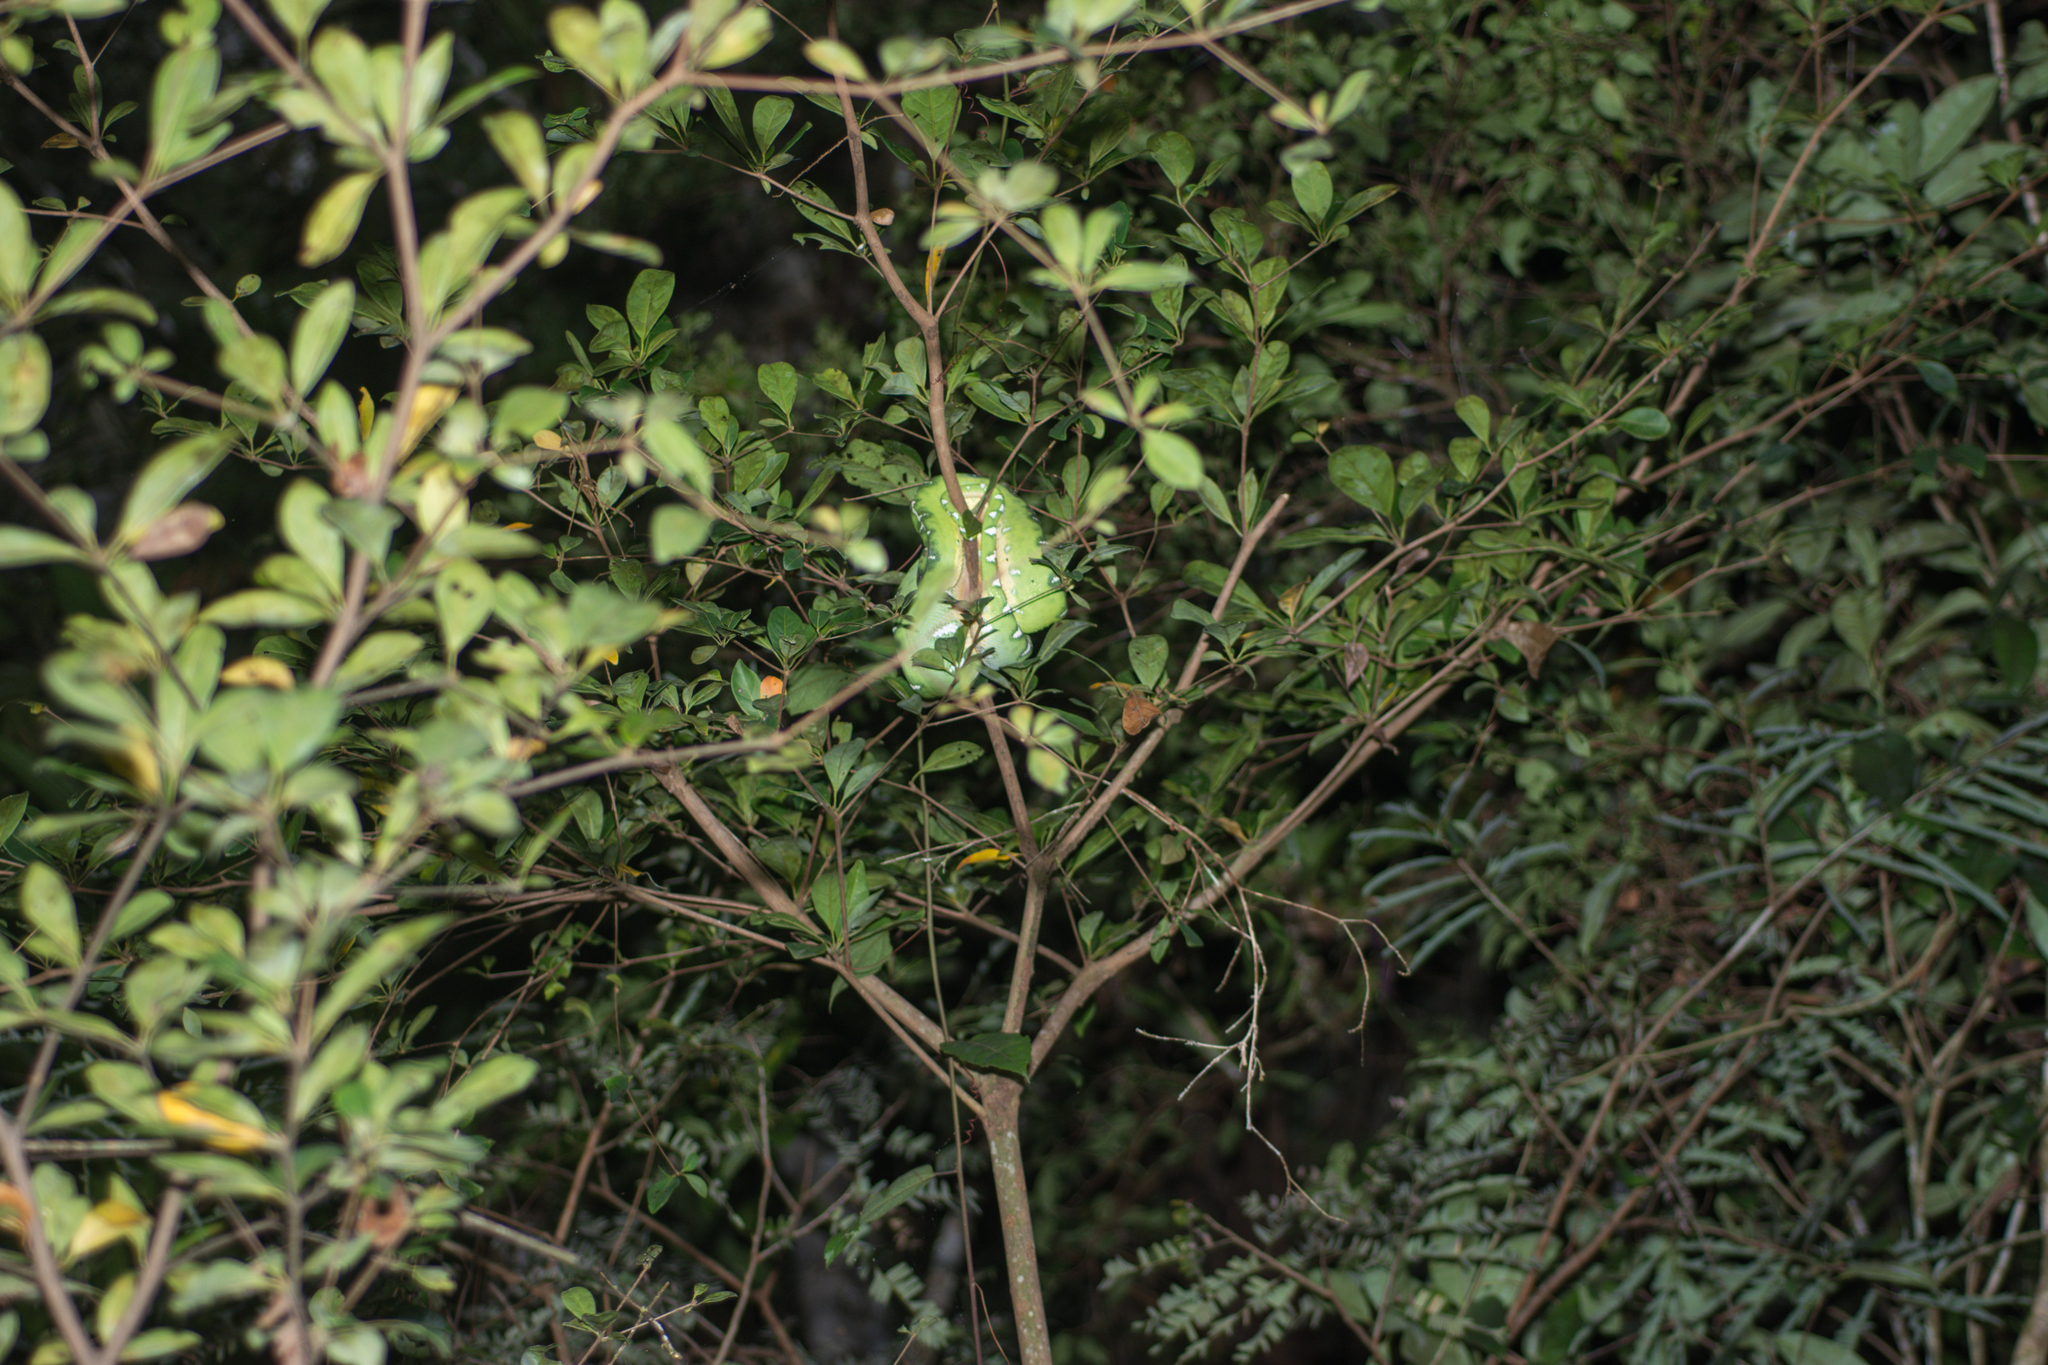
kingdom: Animalia
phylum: Chordata
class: Squamata
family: Boidae
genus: Corallus
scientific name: Corallus batesii
